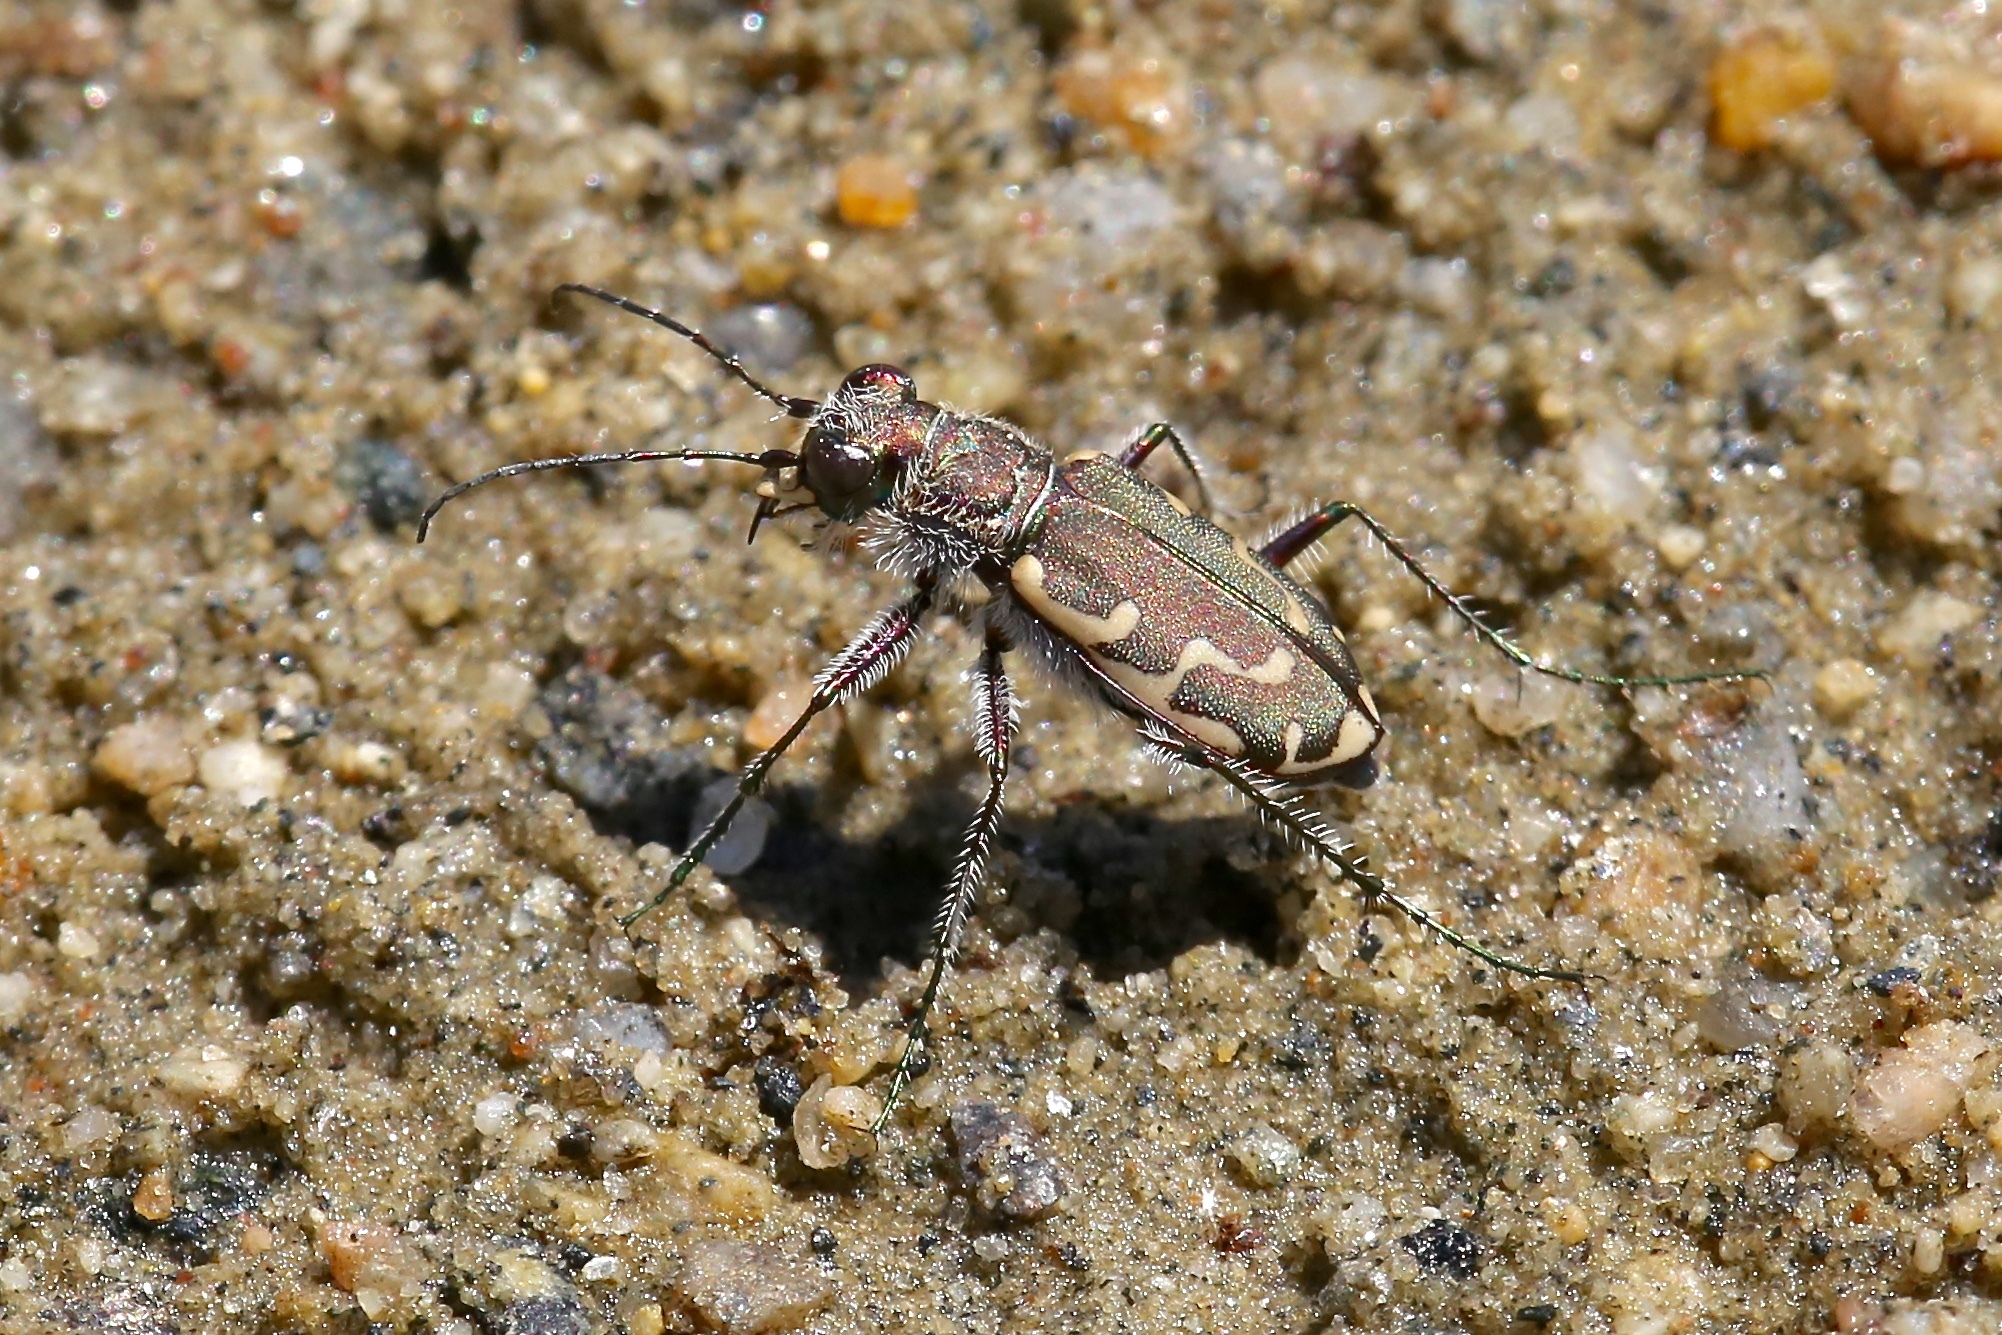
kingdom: Animalia
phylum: Arthropoda
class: Insecta
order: Coleoptera
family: Carabidae
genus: Cicindela
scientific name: Cicindela repanda
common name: Bronzed tiger beetle
